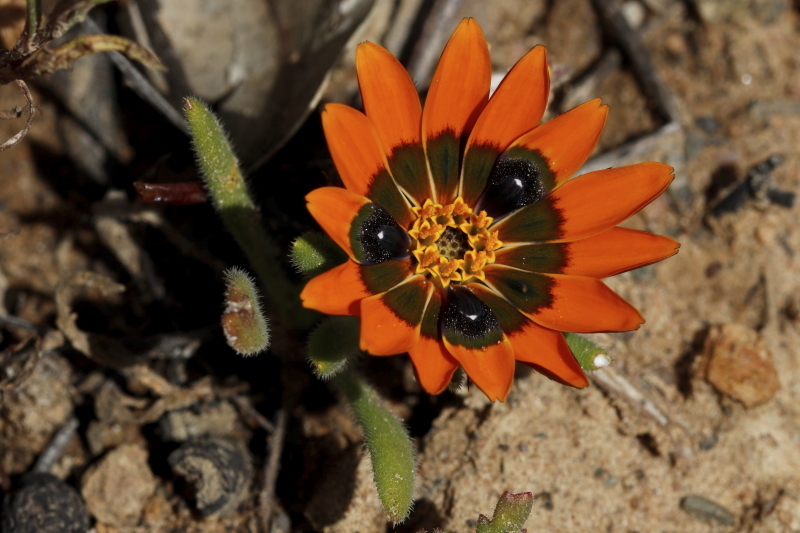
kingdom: Plantae
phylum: Tracheophyta
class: Magnoliopsida
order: Asterales
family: Asteraceae
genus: Gorteria
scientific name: Gorteria diffusa
